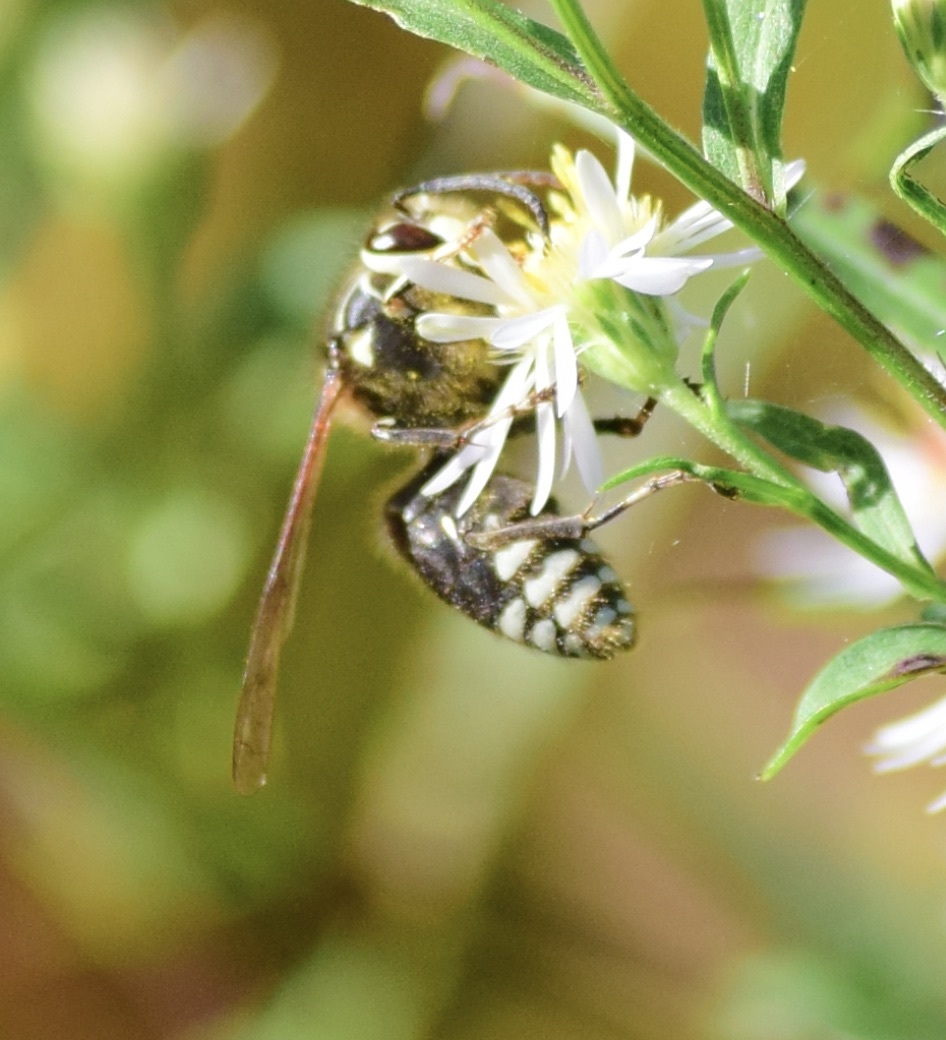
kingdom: Animalia
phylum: Arthropoda
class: Insecta
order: Hymenoptera
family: Vespidae
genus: Dolichovespula
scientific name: Dolichovespula maculata
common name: Bald-faced hornet
